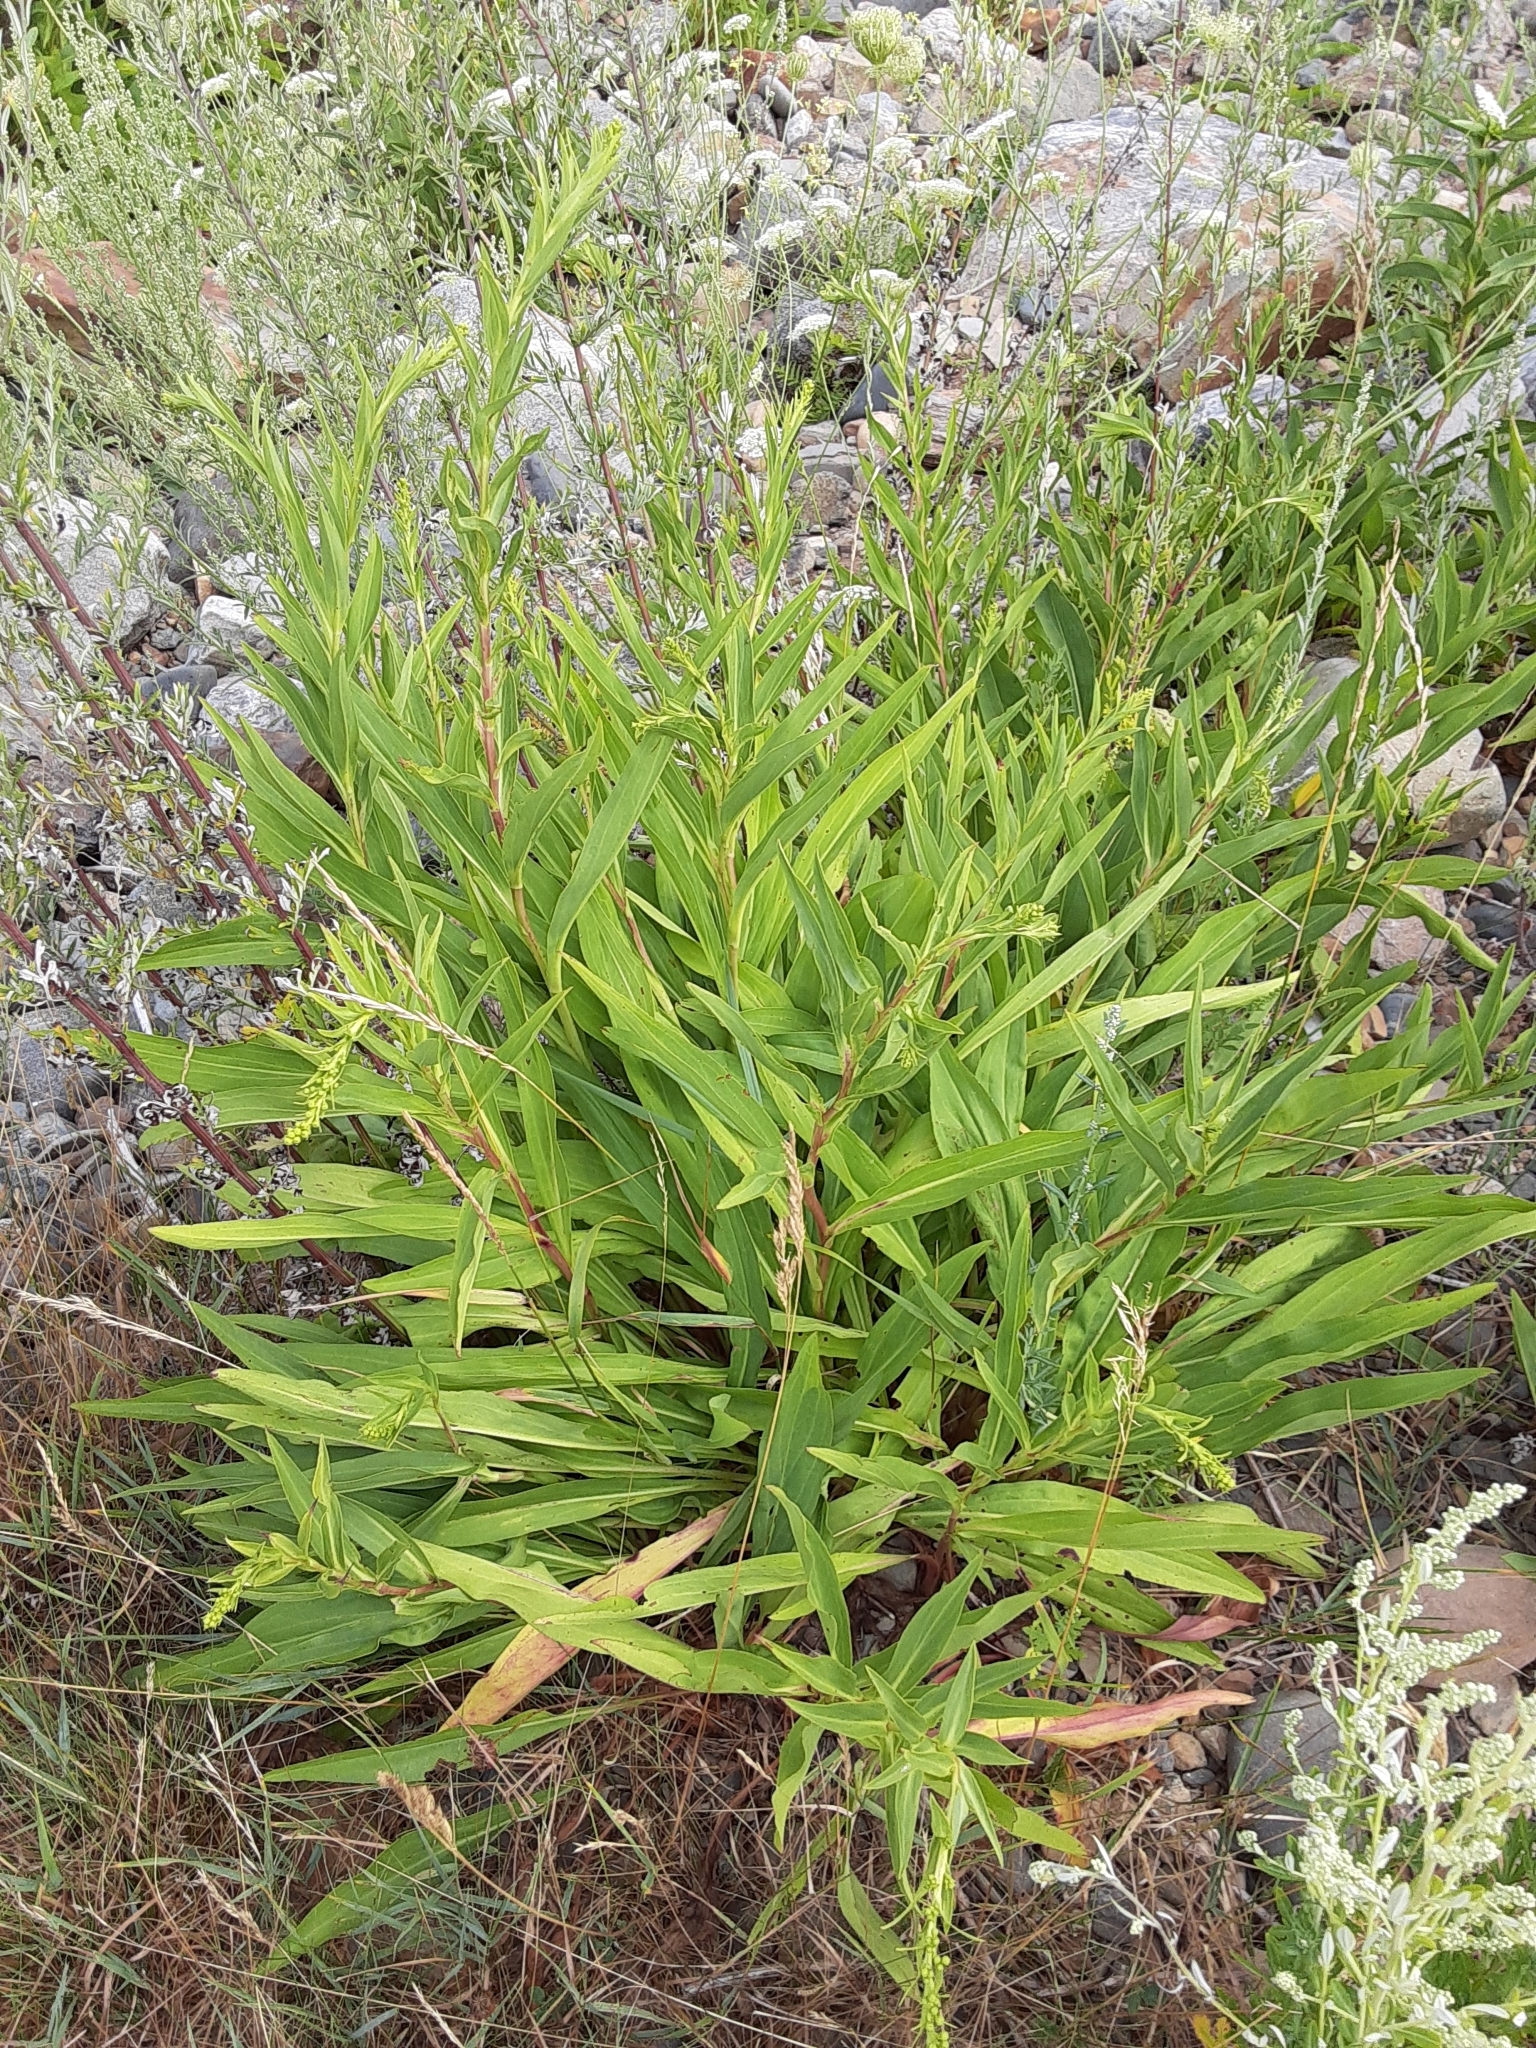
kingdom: Plantae
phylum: Tracheophyta
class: Magnoliopsida
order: Asterales
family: Asteraceae
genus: Solidago
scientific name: Solidago sempervirens
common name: Salt-marsh goldenrod
